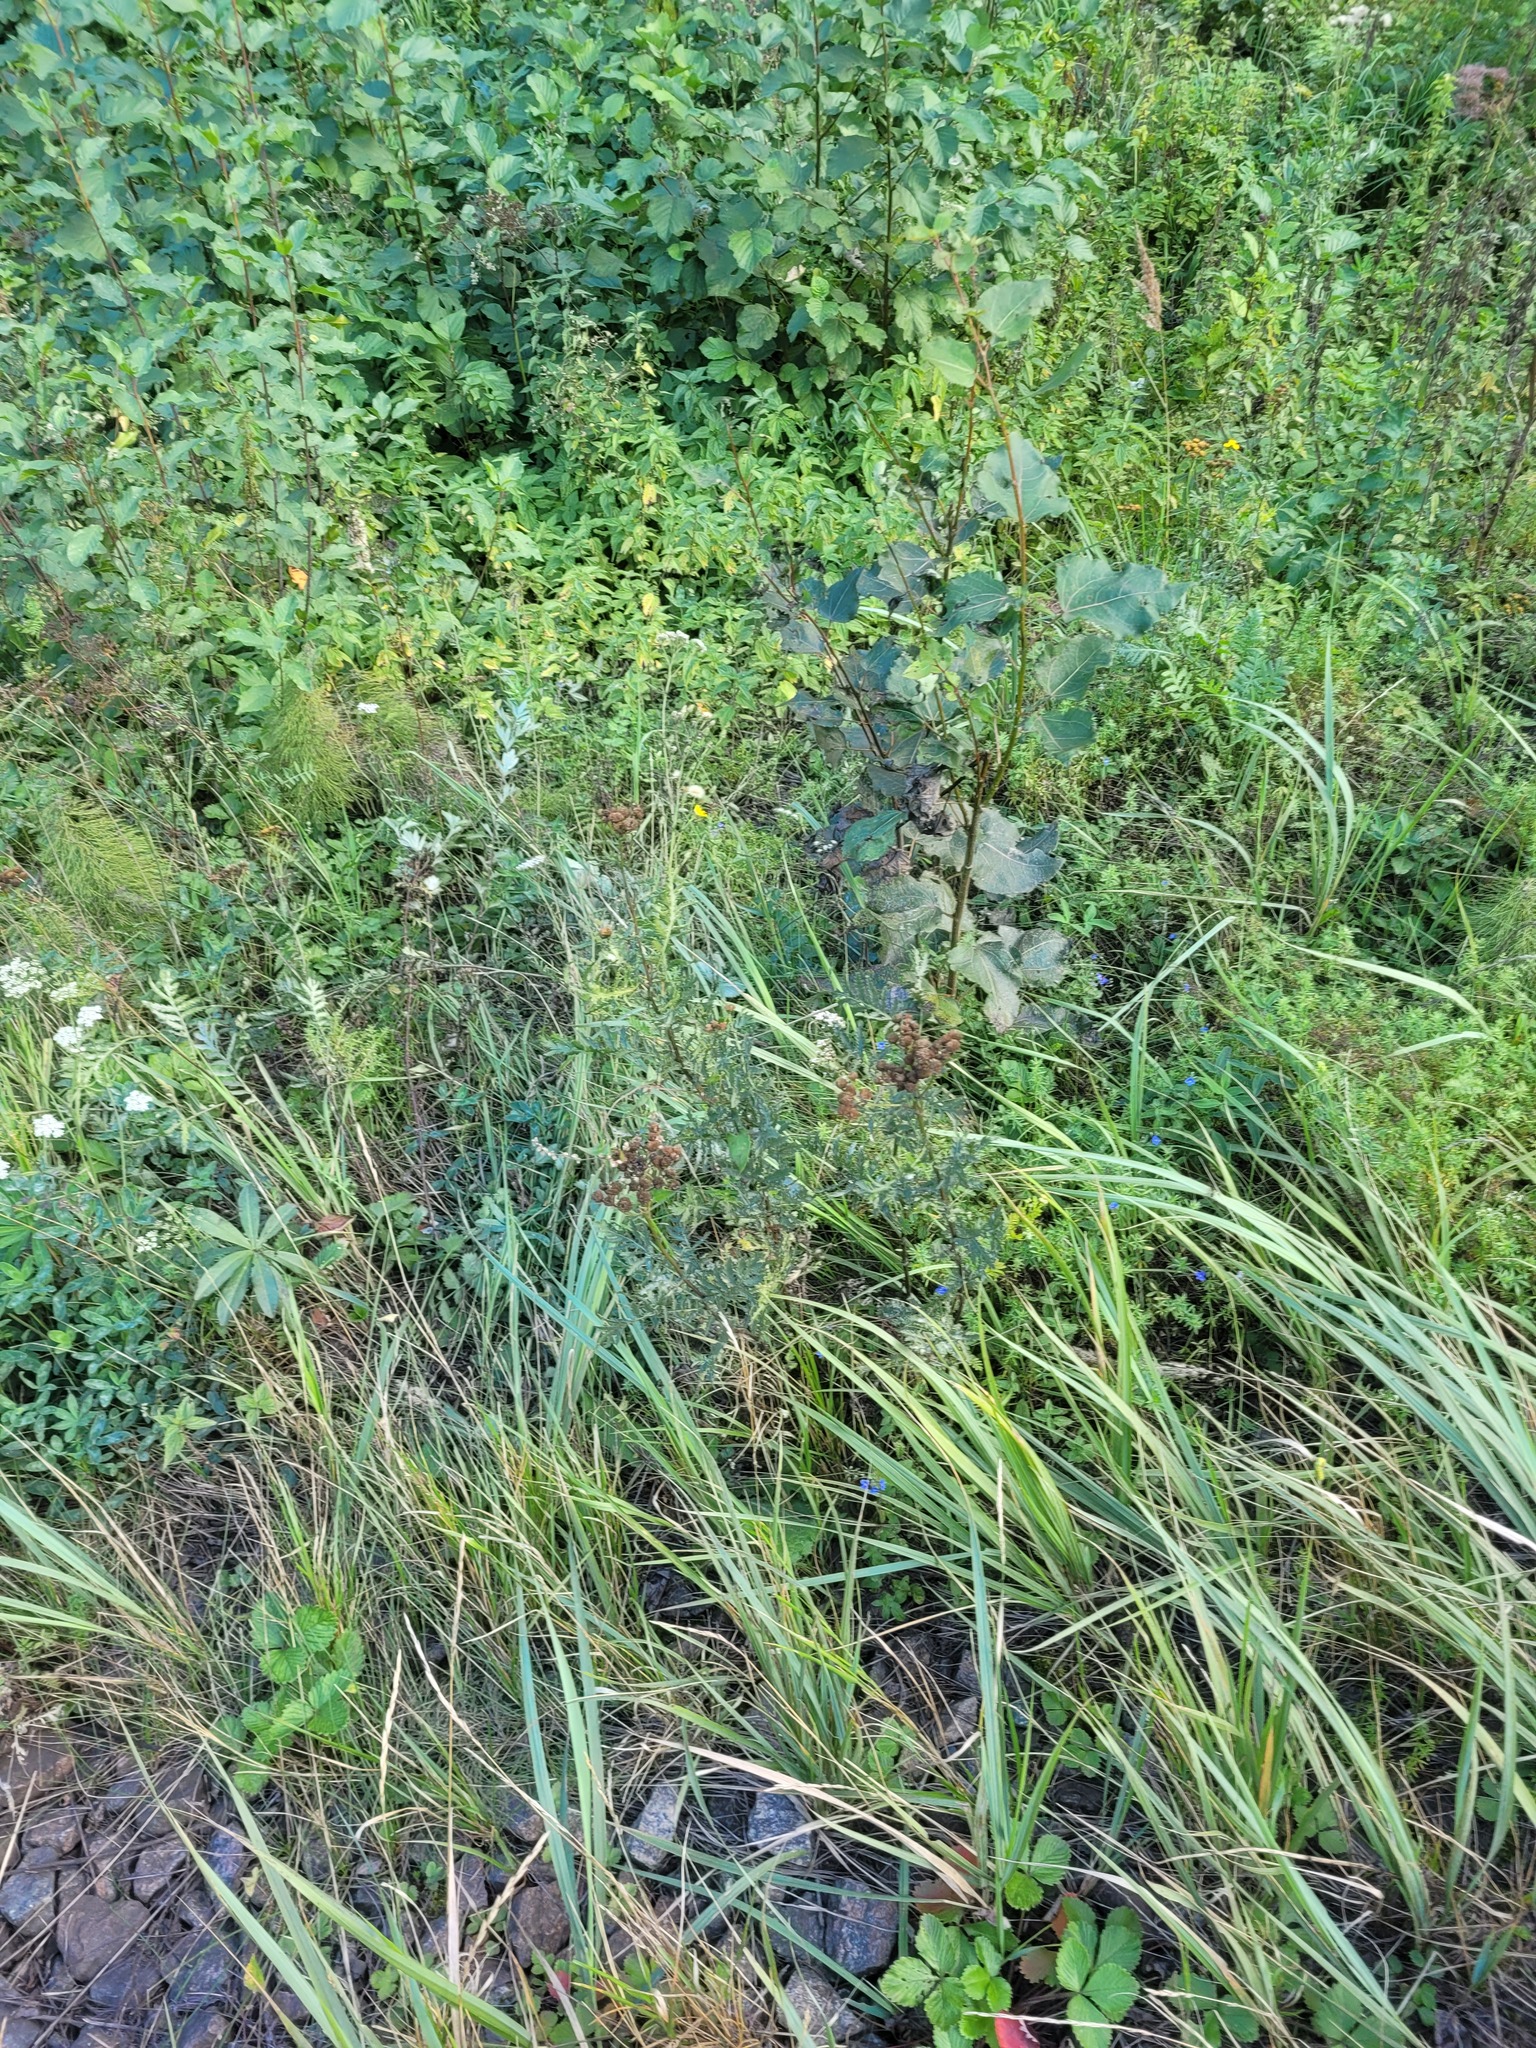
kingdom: Plantae
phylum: Tracheophyta
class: Magnoliopsida
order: Asterales
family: Asteraceae
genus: Tanacetum
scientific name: Tanacetum vulgare
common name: Common tansy
